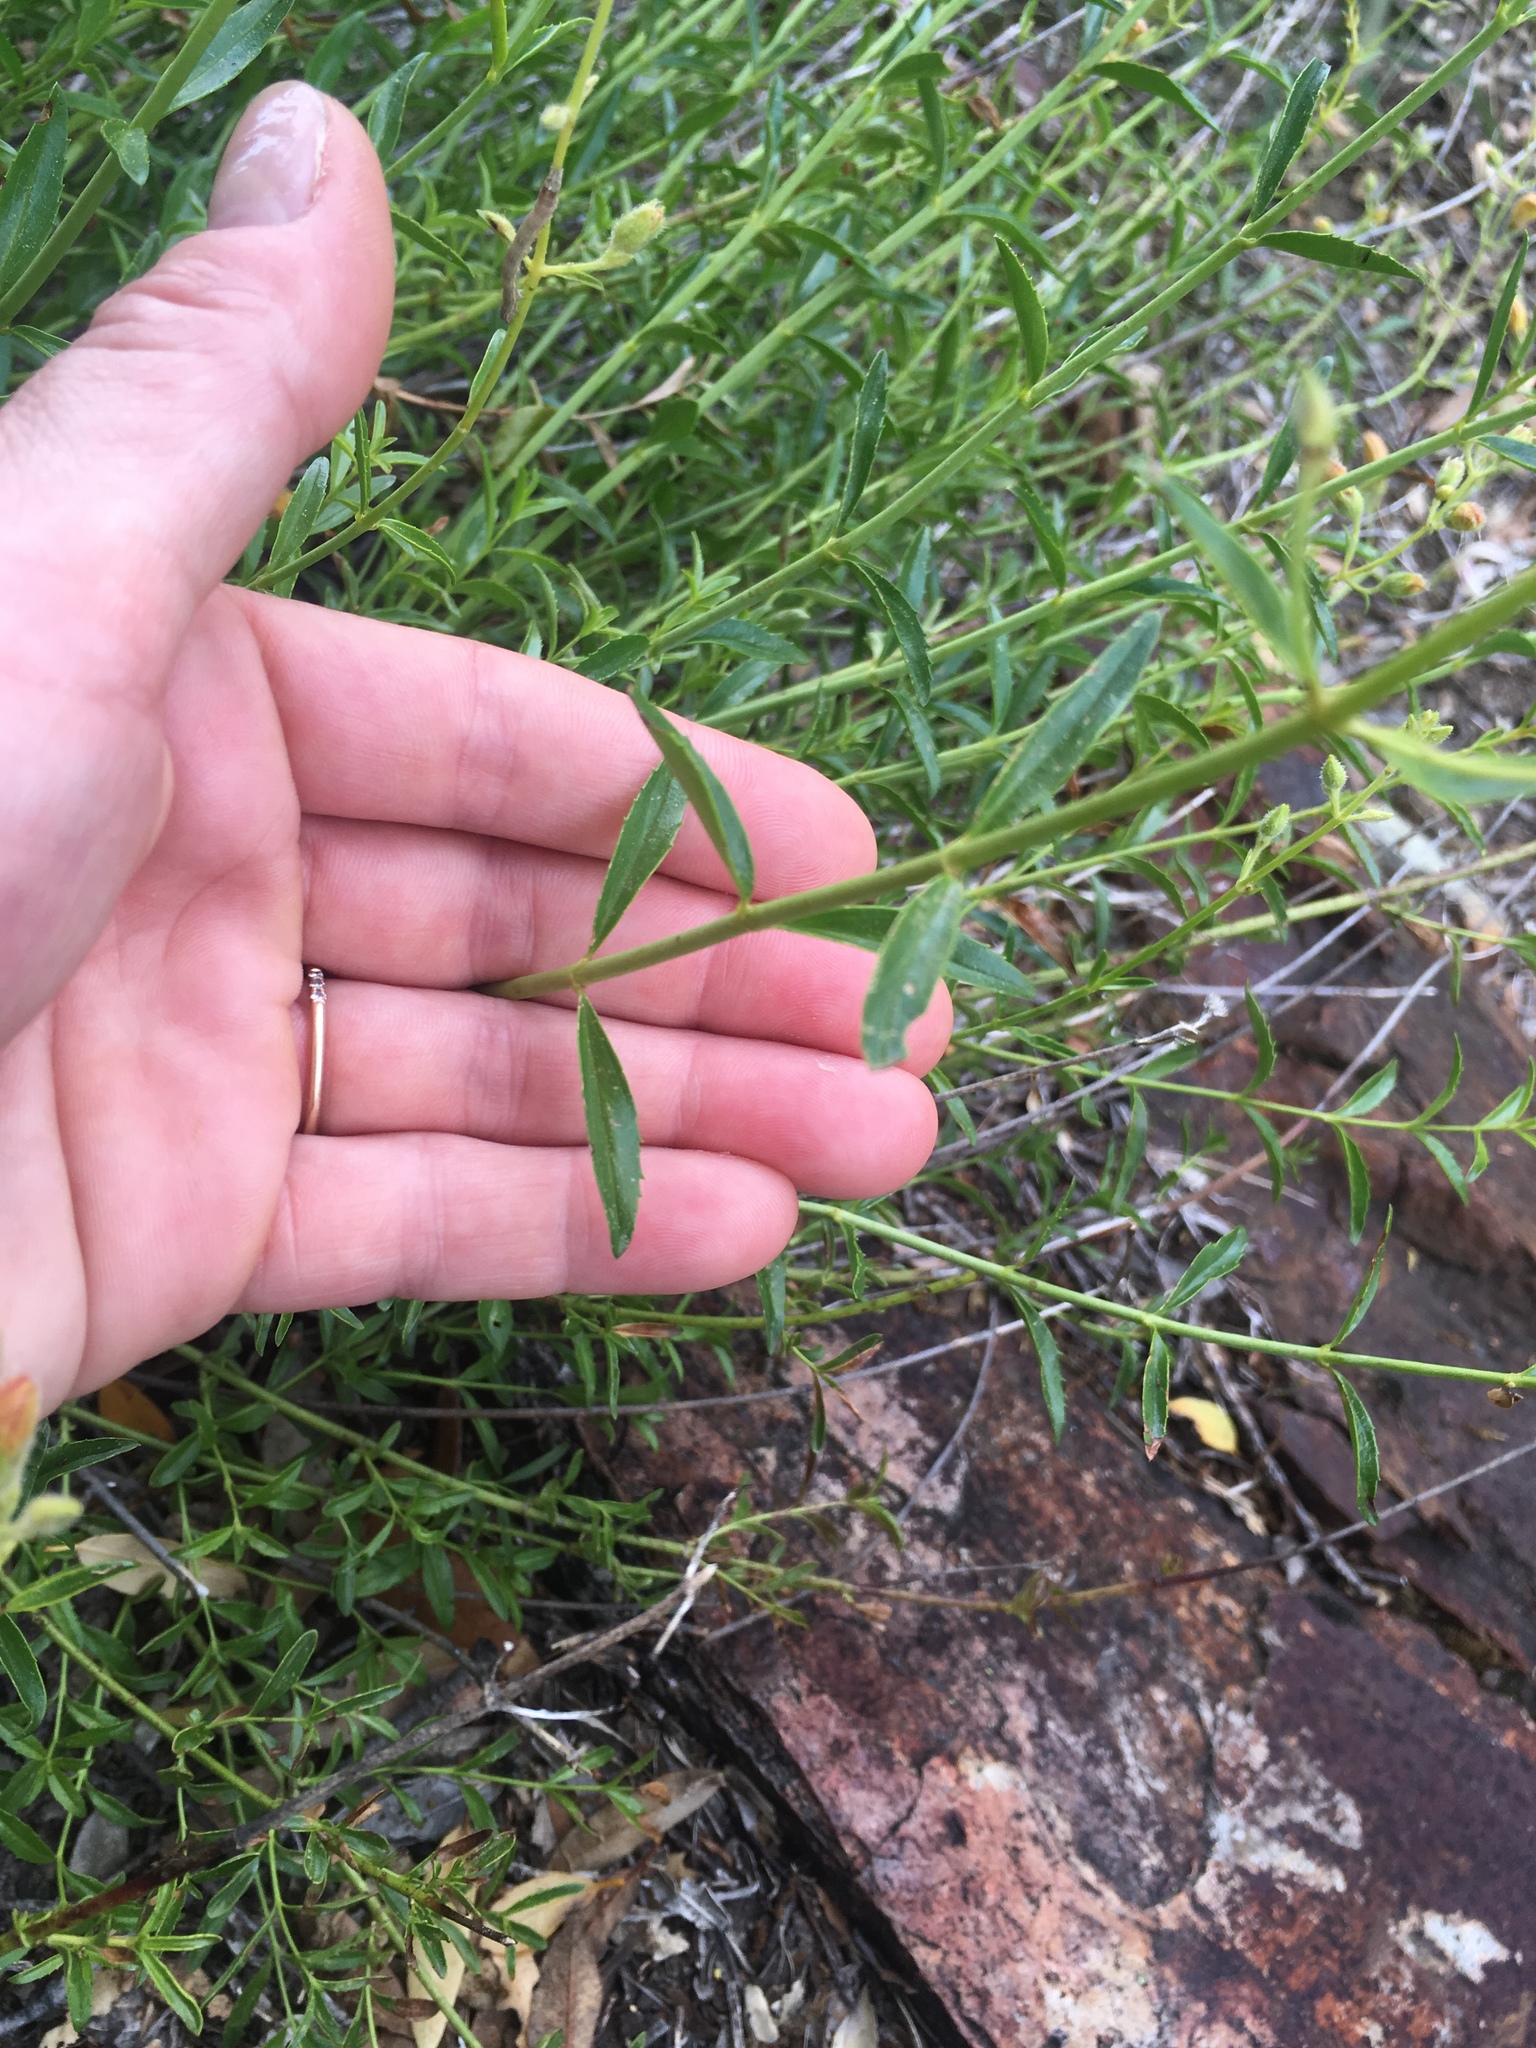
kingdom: Plantae
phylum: Tracheophyta
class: Magnoliopsida
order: Lamiales
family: Plantaginaceae
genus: Keckiella
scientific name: Keckiella breviflora
